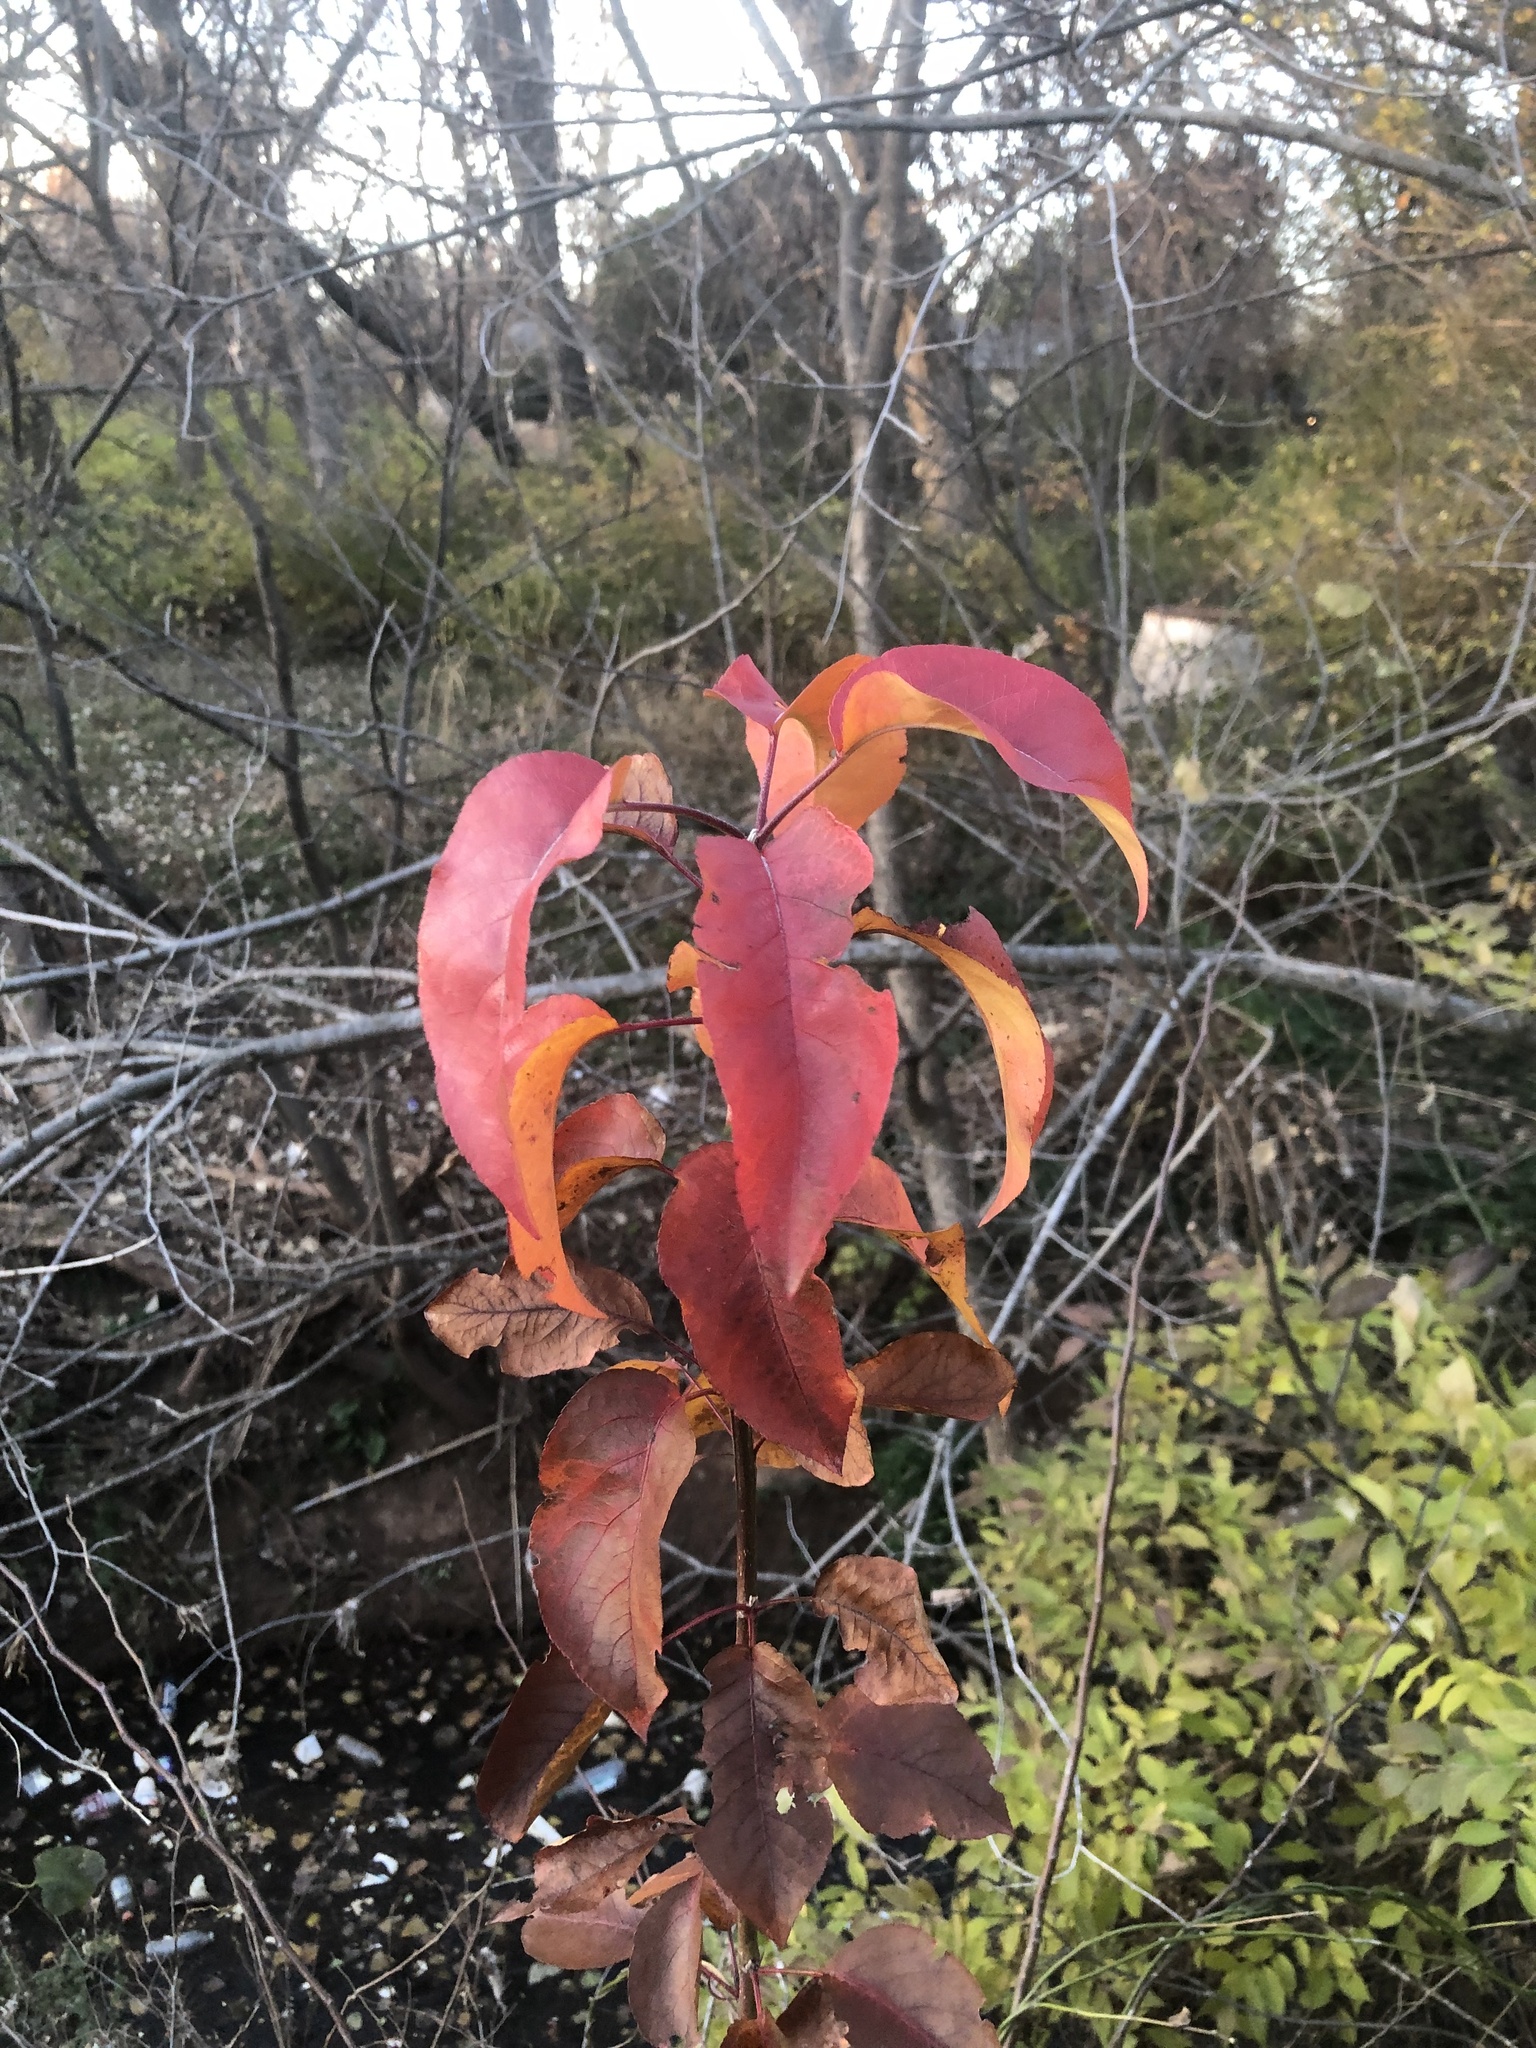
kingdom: Plantae
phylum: Tracheophyta
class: Magnoliopsida
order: Rosales
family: Rosaceae
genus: Pyrus
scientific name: Pyrus calleryana
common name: Callery pear
